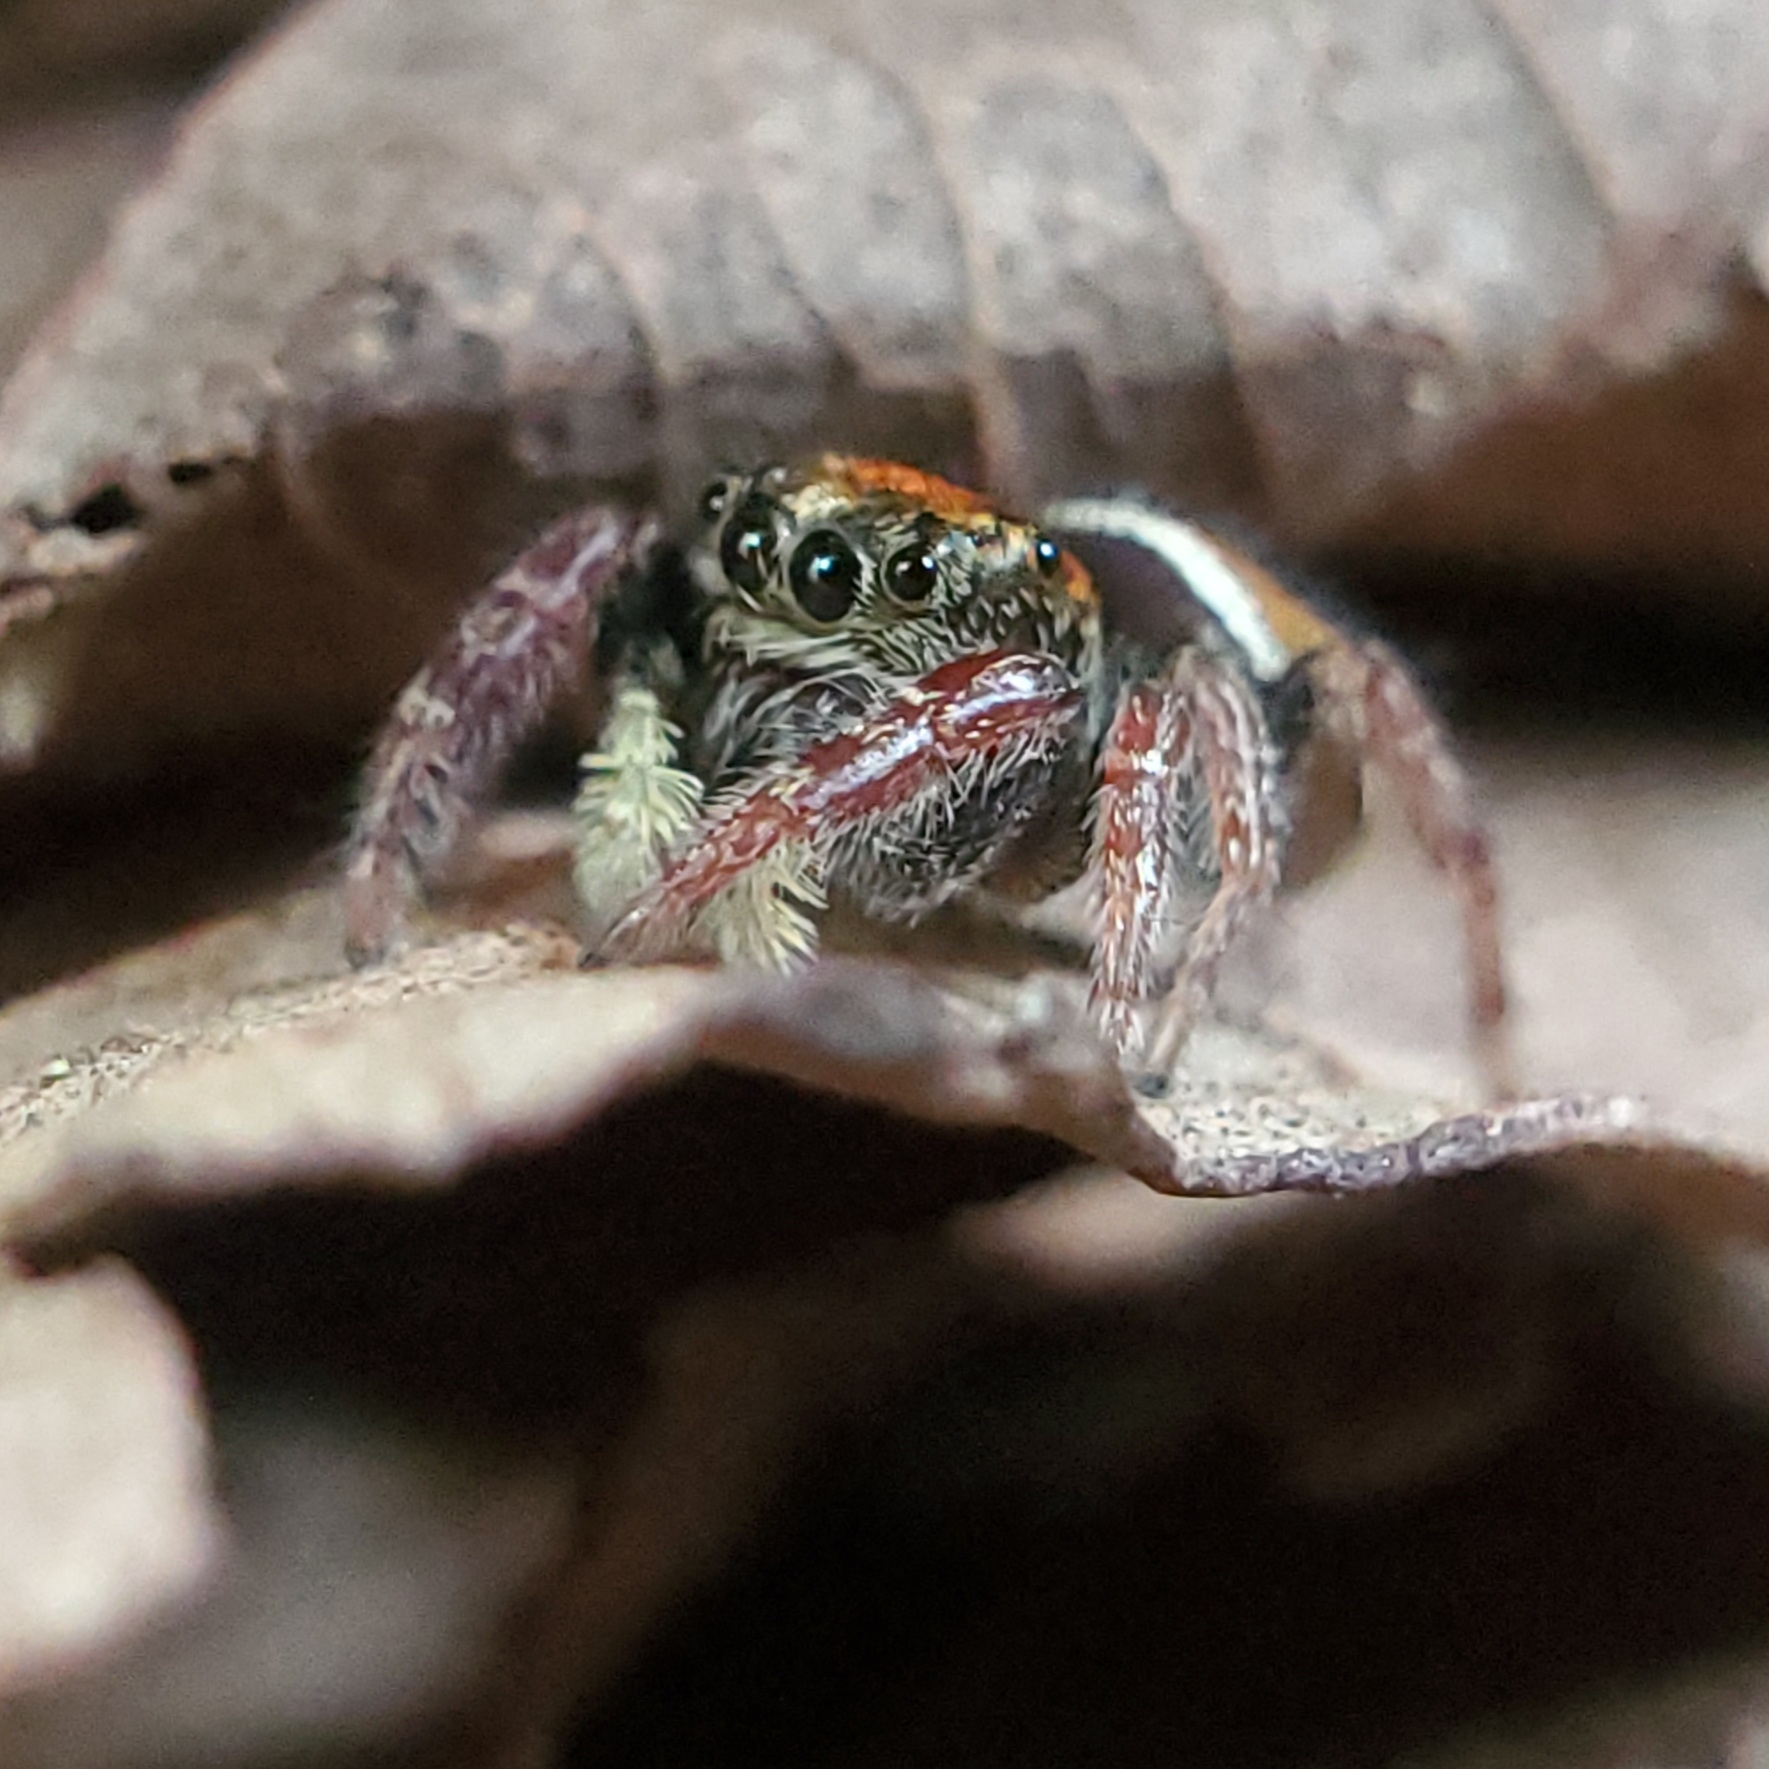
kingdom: Animalia
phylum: Arthropoda
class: Arachnida
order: Araneae
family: Salticidae
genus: Phidippus
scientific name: Phidippus whitmani
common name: Whitman's jumping spider
